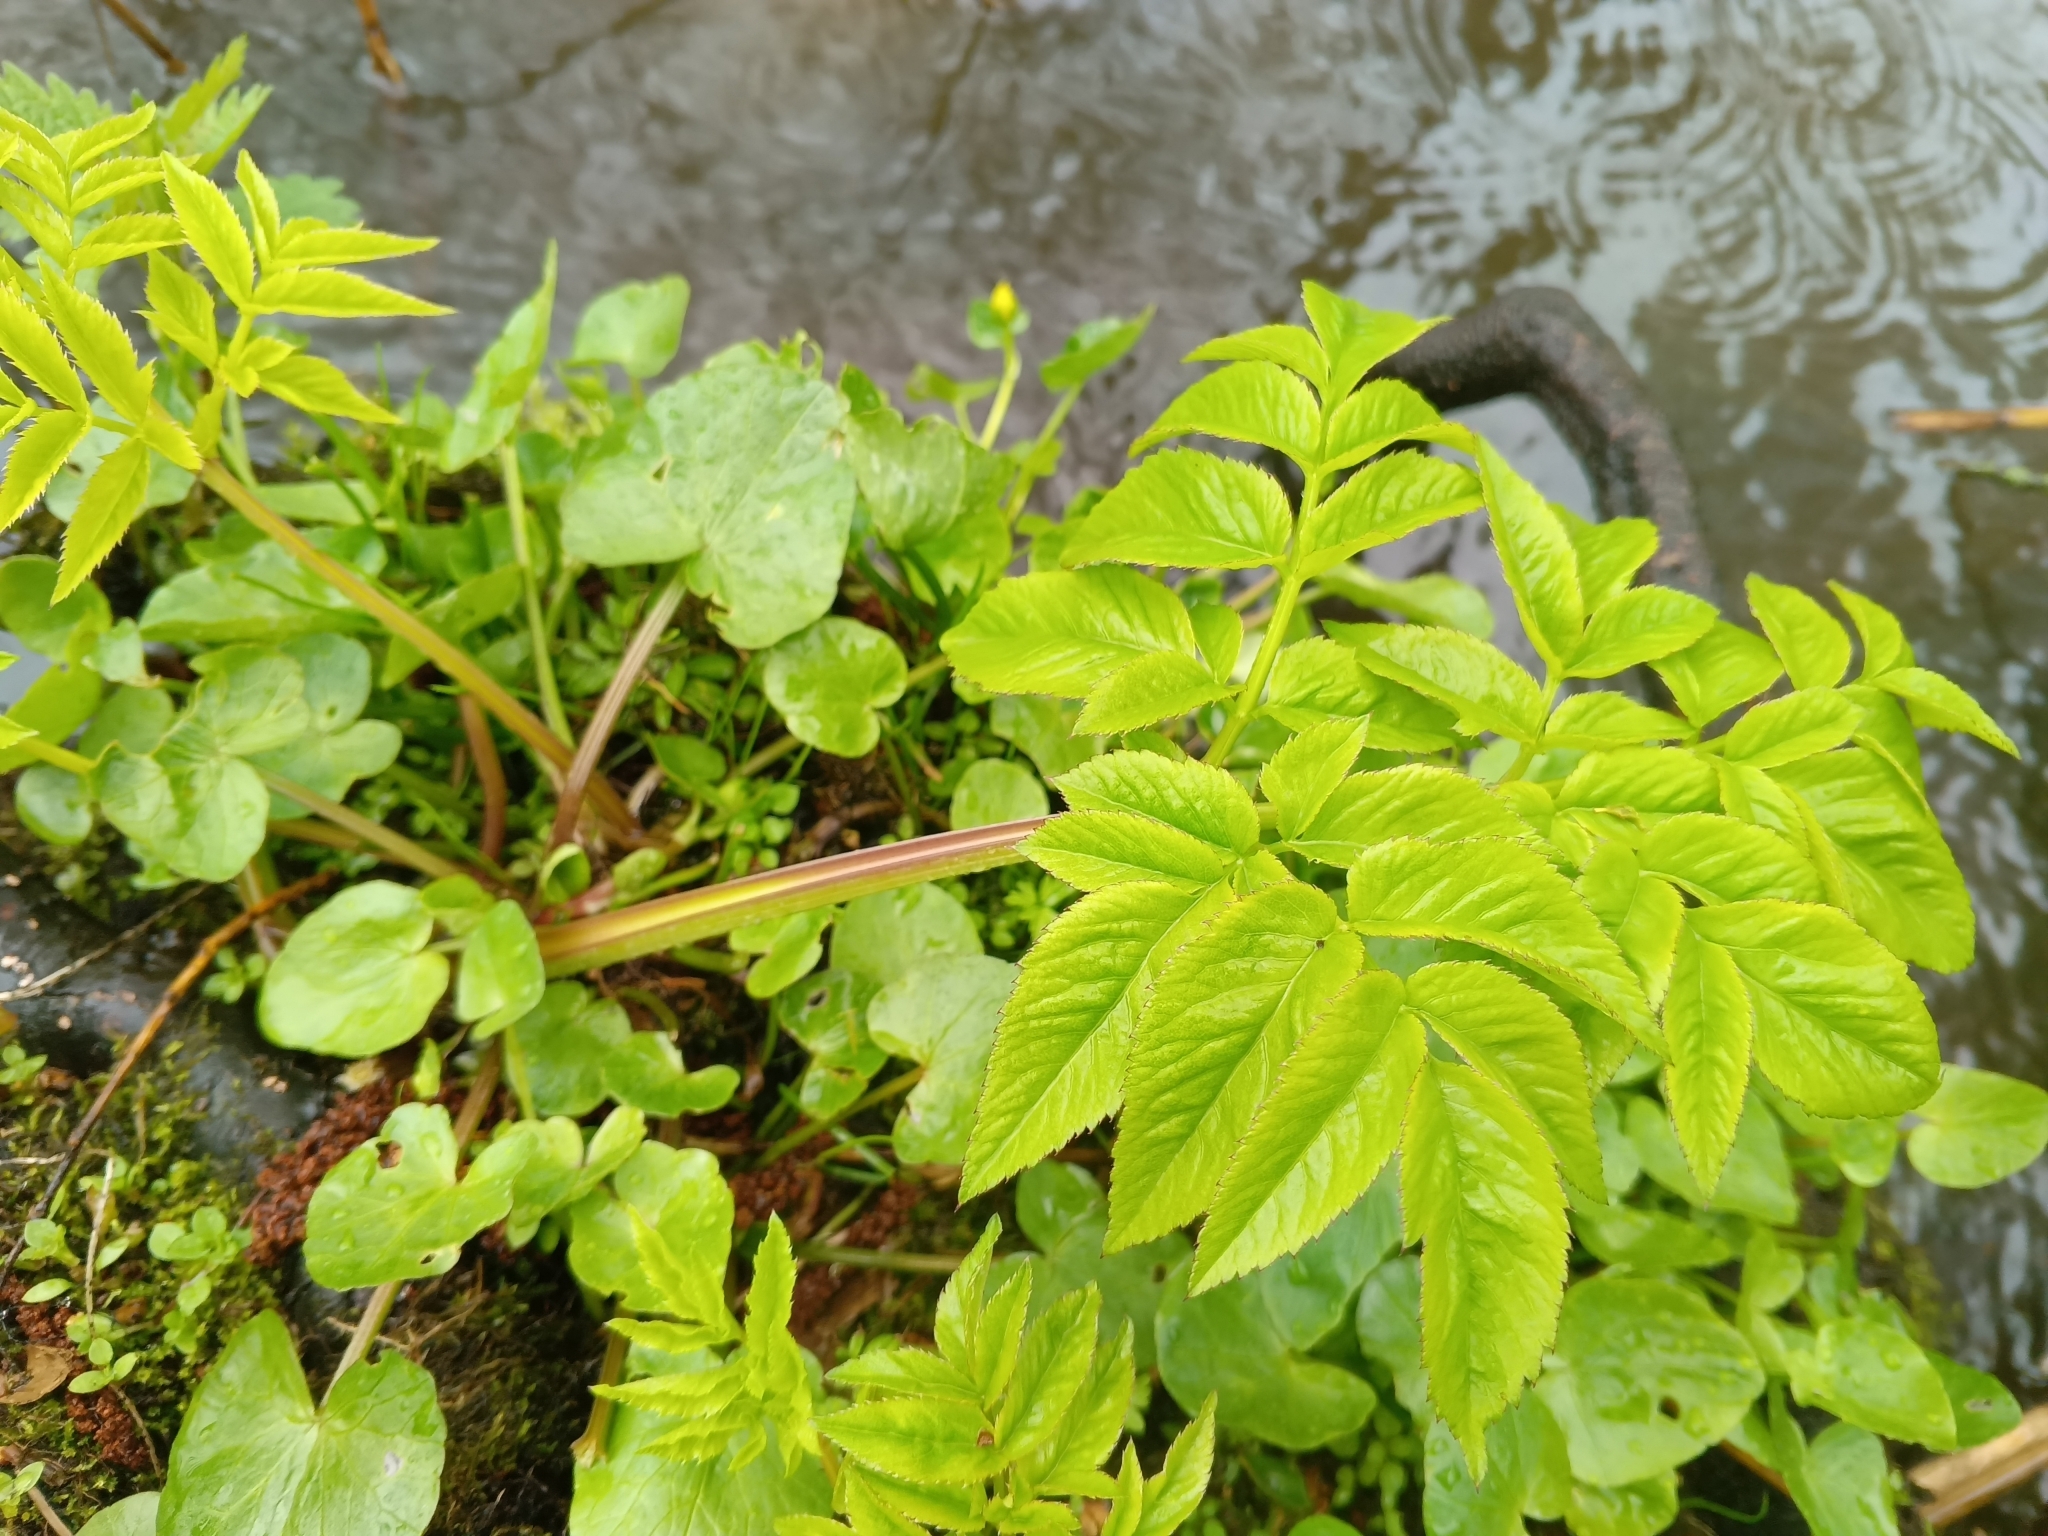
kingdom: Plantae
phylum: Tracheophyta
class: Magnoliopsida
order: Apiales
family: Apiaceae
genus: Angelica
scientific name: Angelica archangelica
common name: Garden angelica
